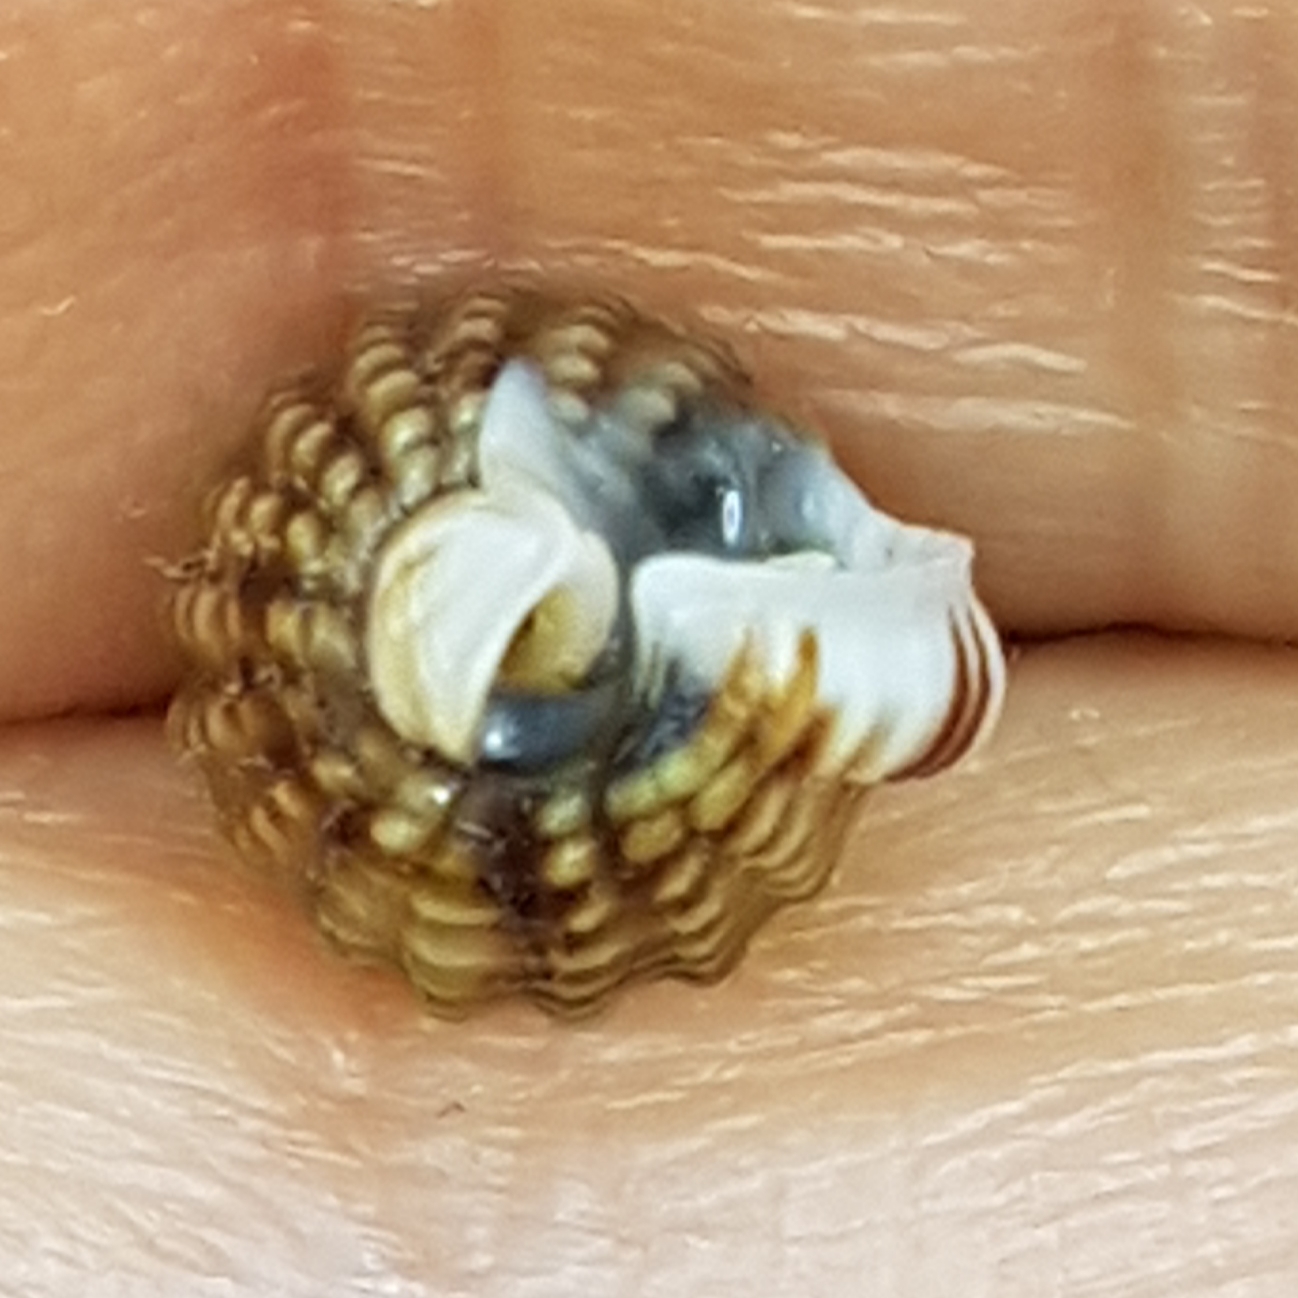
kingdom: Animalia
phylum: Mollusca
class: Gastropoda
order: Neogastropoda
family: Nassariidae
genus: Tritia
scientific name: Tritia incrassata
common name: Thick-lipped dog whelk
